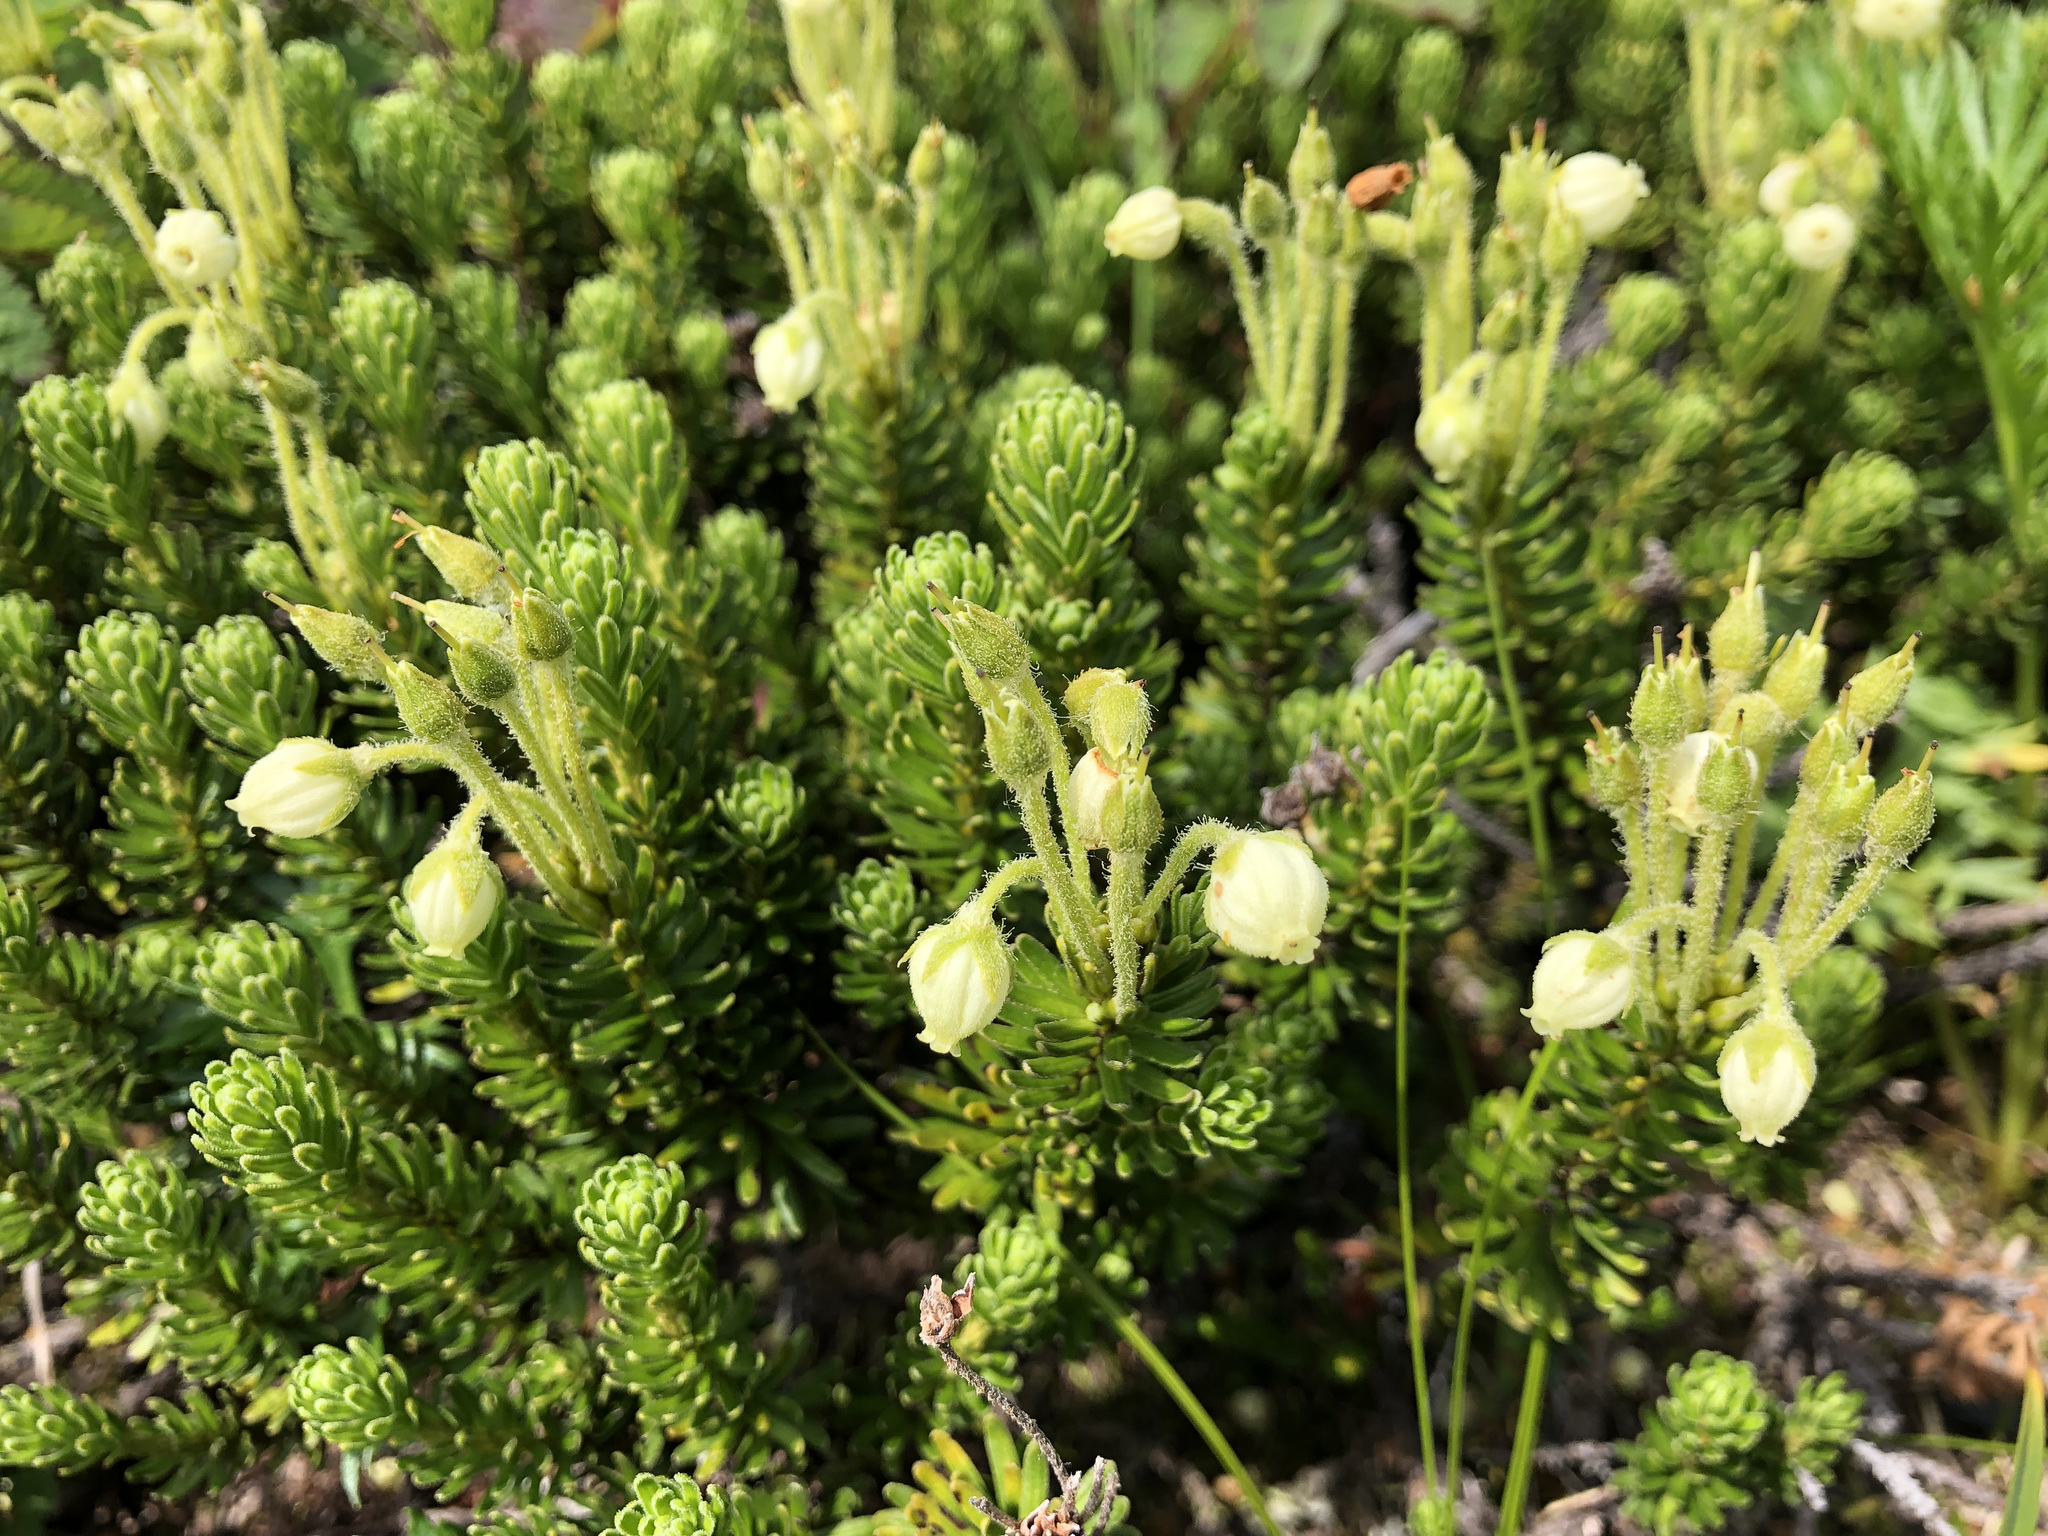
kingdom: Plantae
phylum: Tracheophyta
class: Magnoliopsida
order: Ericales
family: Ericaceae
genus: Phyllodoce
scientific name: Phyllodoce glanduliflora
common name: Cream mountain heather
